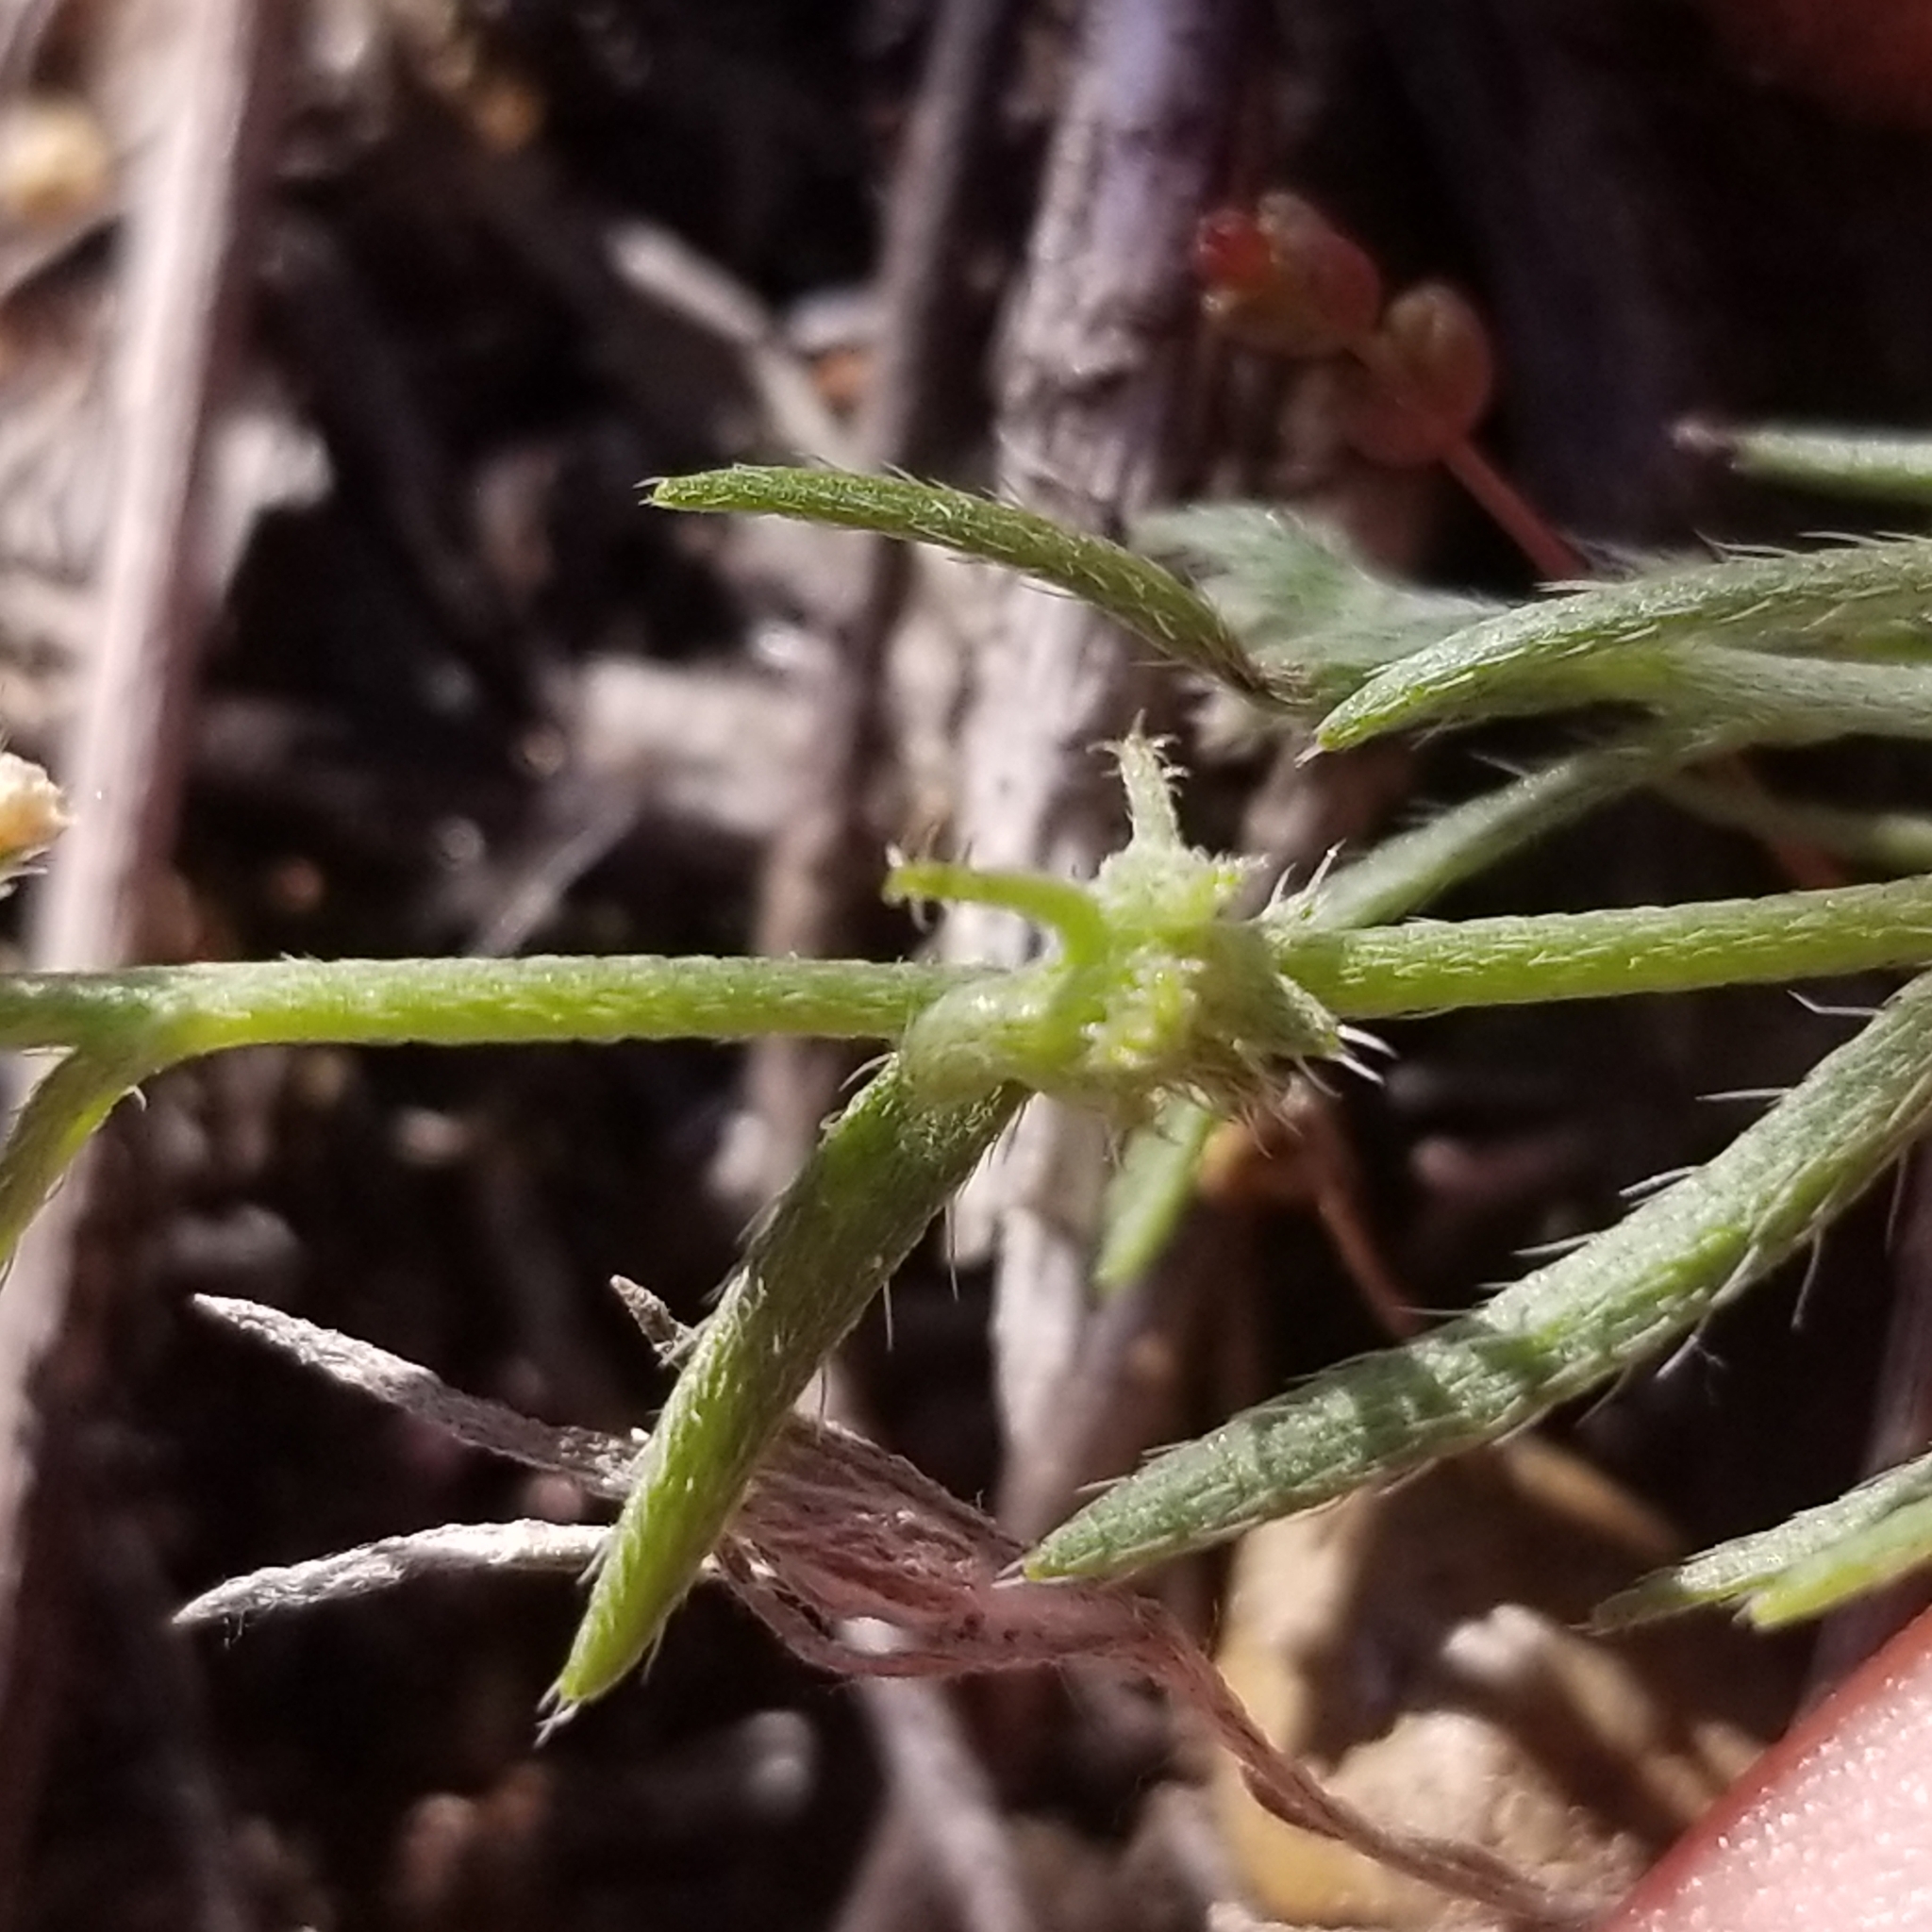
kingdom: Plantae
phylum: Tracheophyta
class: Magnoliopsida
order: Boraginales
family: Boraginaceae
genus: Harpagonella
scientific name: Harpagonella palmeri
